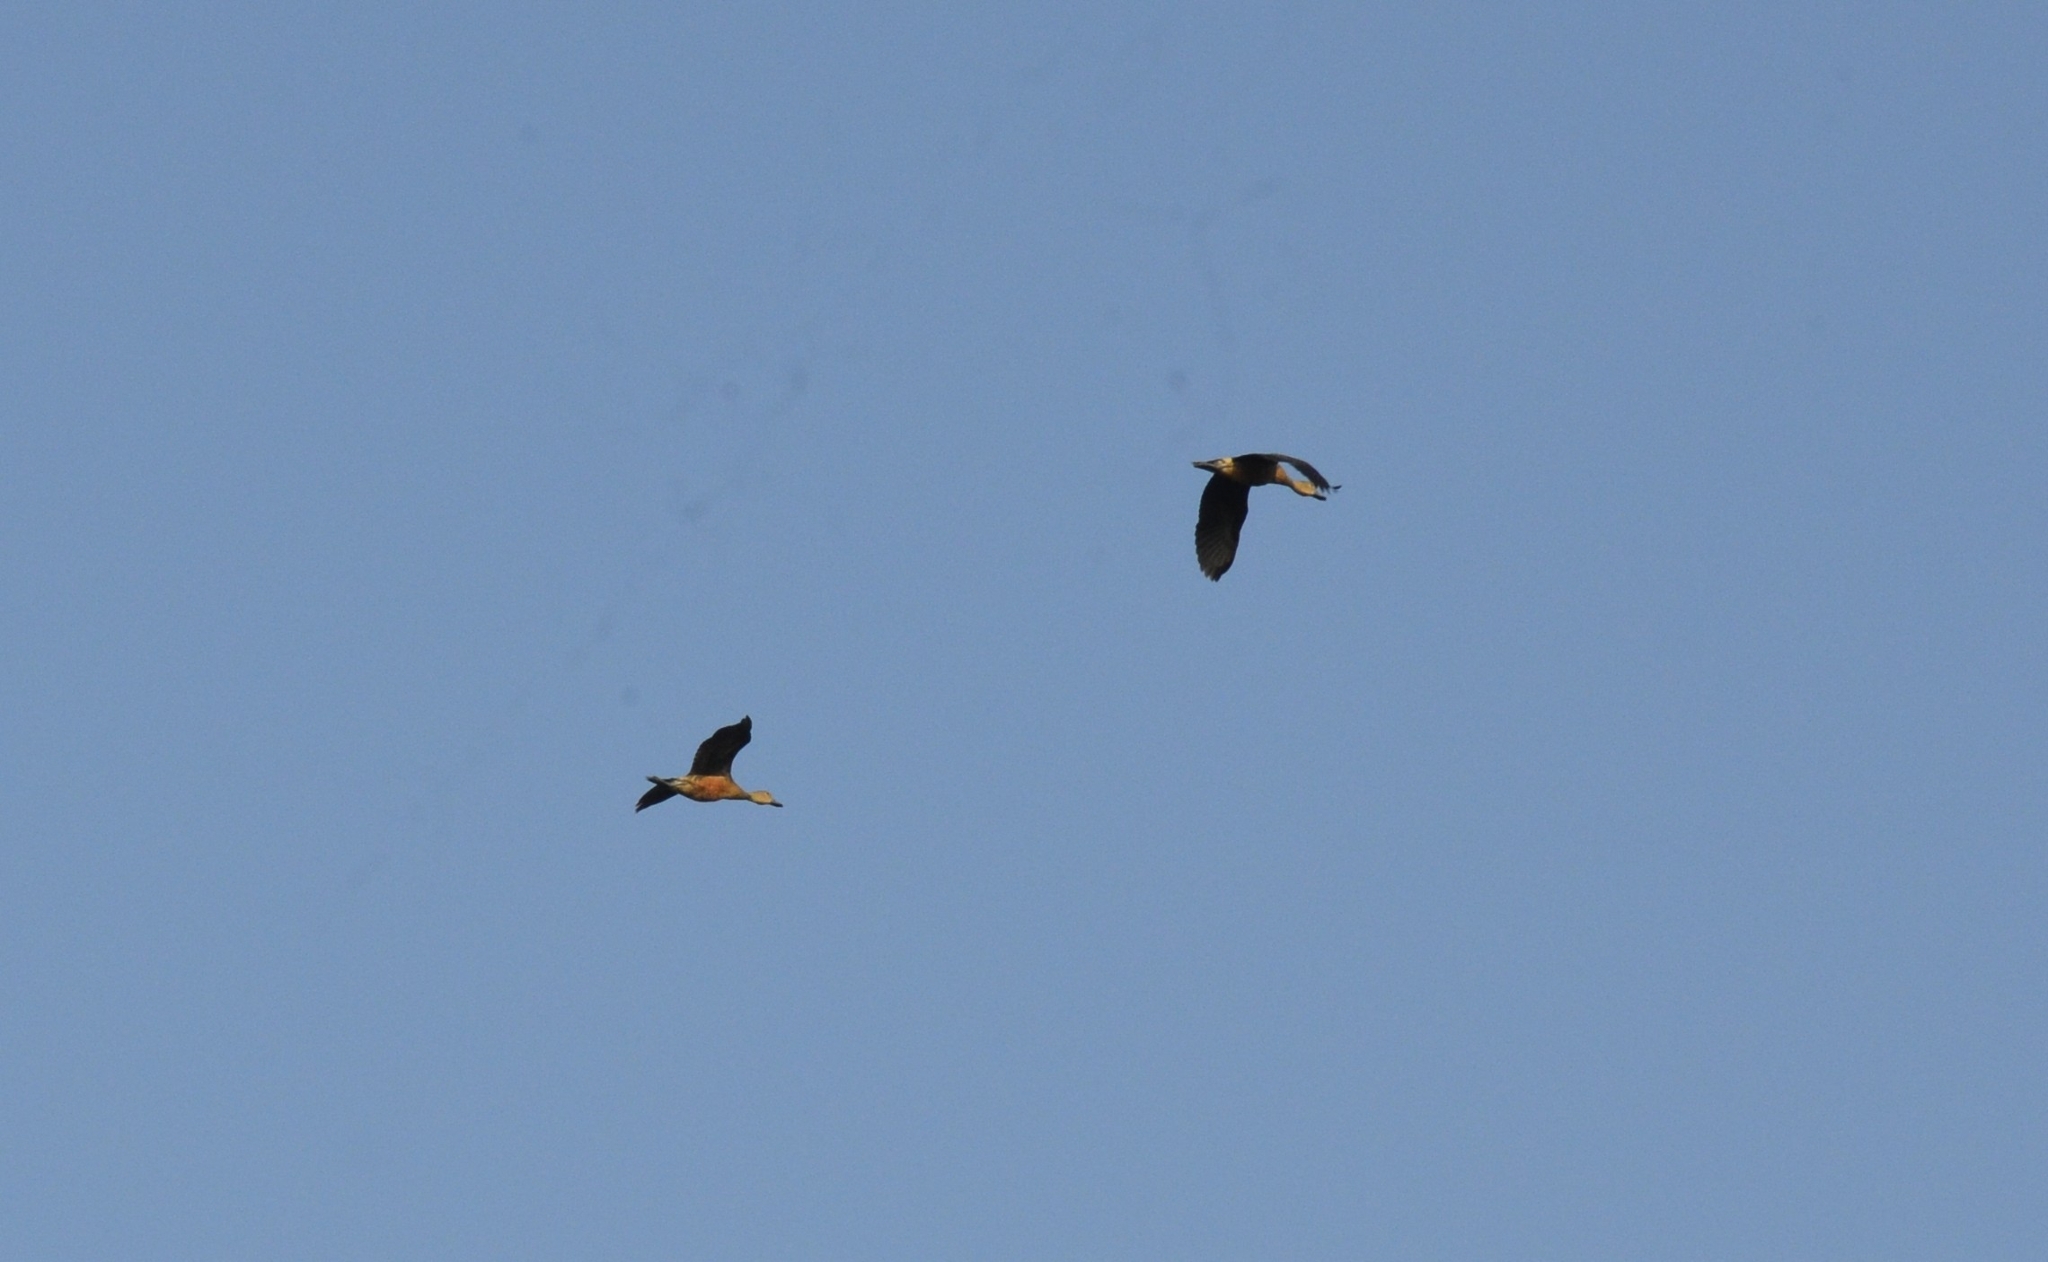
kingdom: Animalia
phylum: Chordata
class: Aves
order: Anseriformes
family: Anatidae
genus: Dendrocygna
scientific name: Dendrocygna javanica
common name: Lesser whistling-duck
